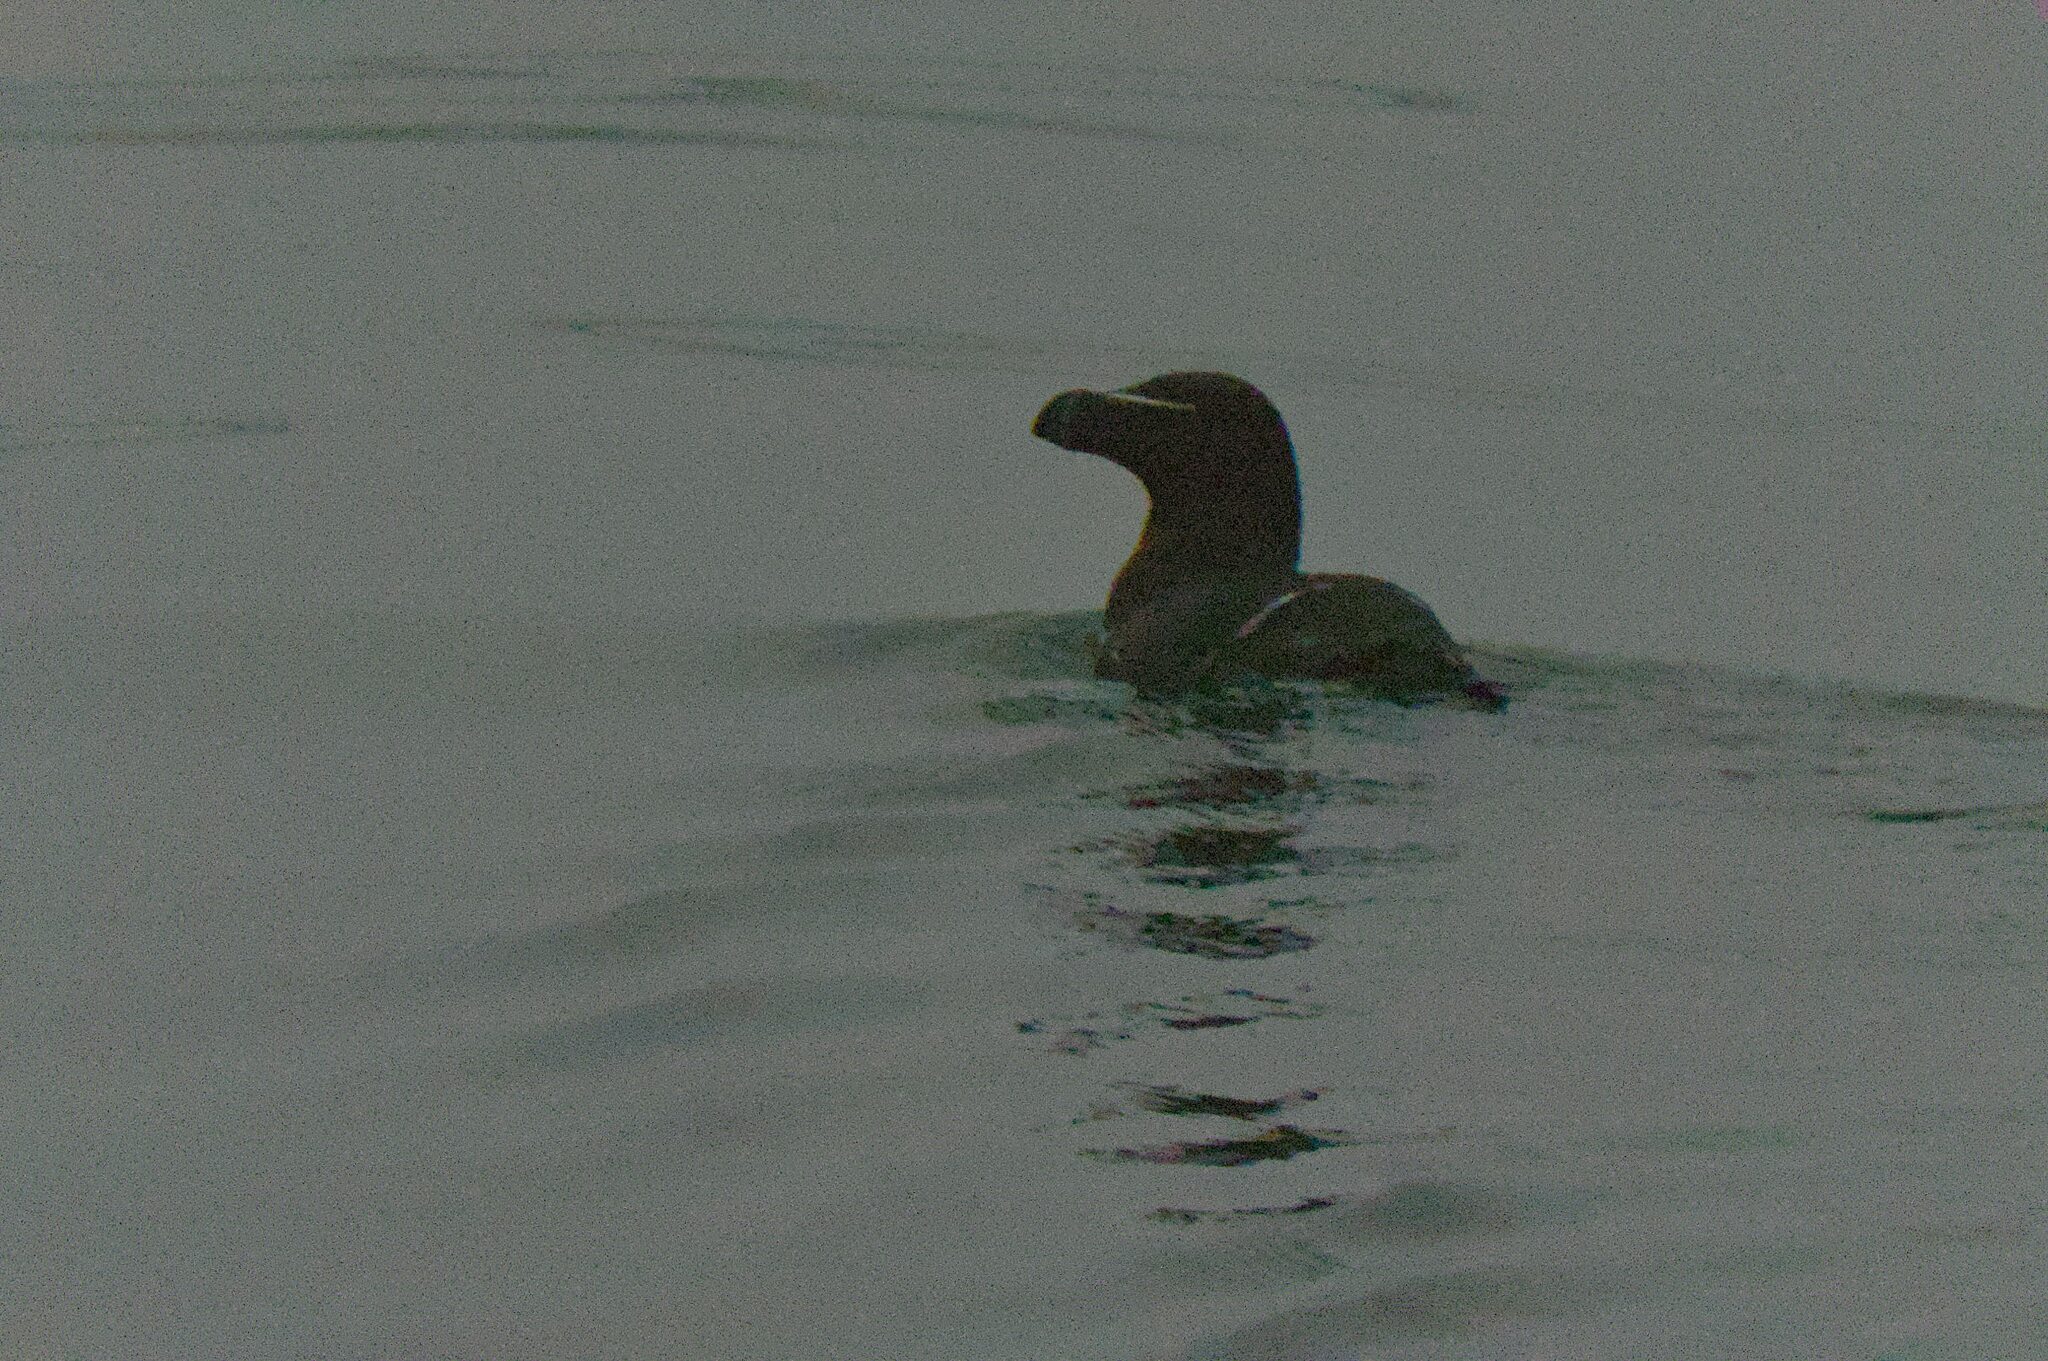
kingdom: Animalia
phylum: Chordata
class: Aves
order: Charadriiformes
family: Alcidae
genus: Alca
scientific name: Alca torda
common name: Razorbill
